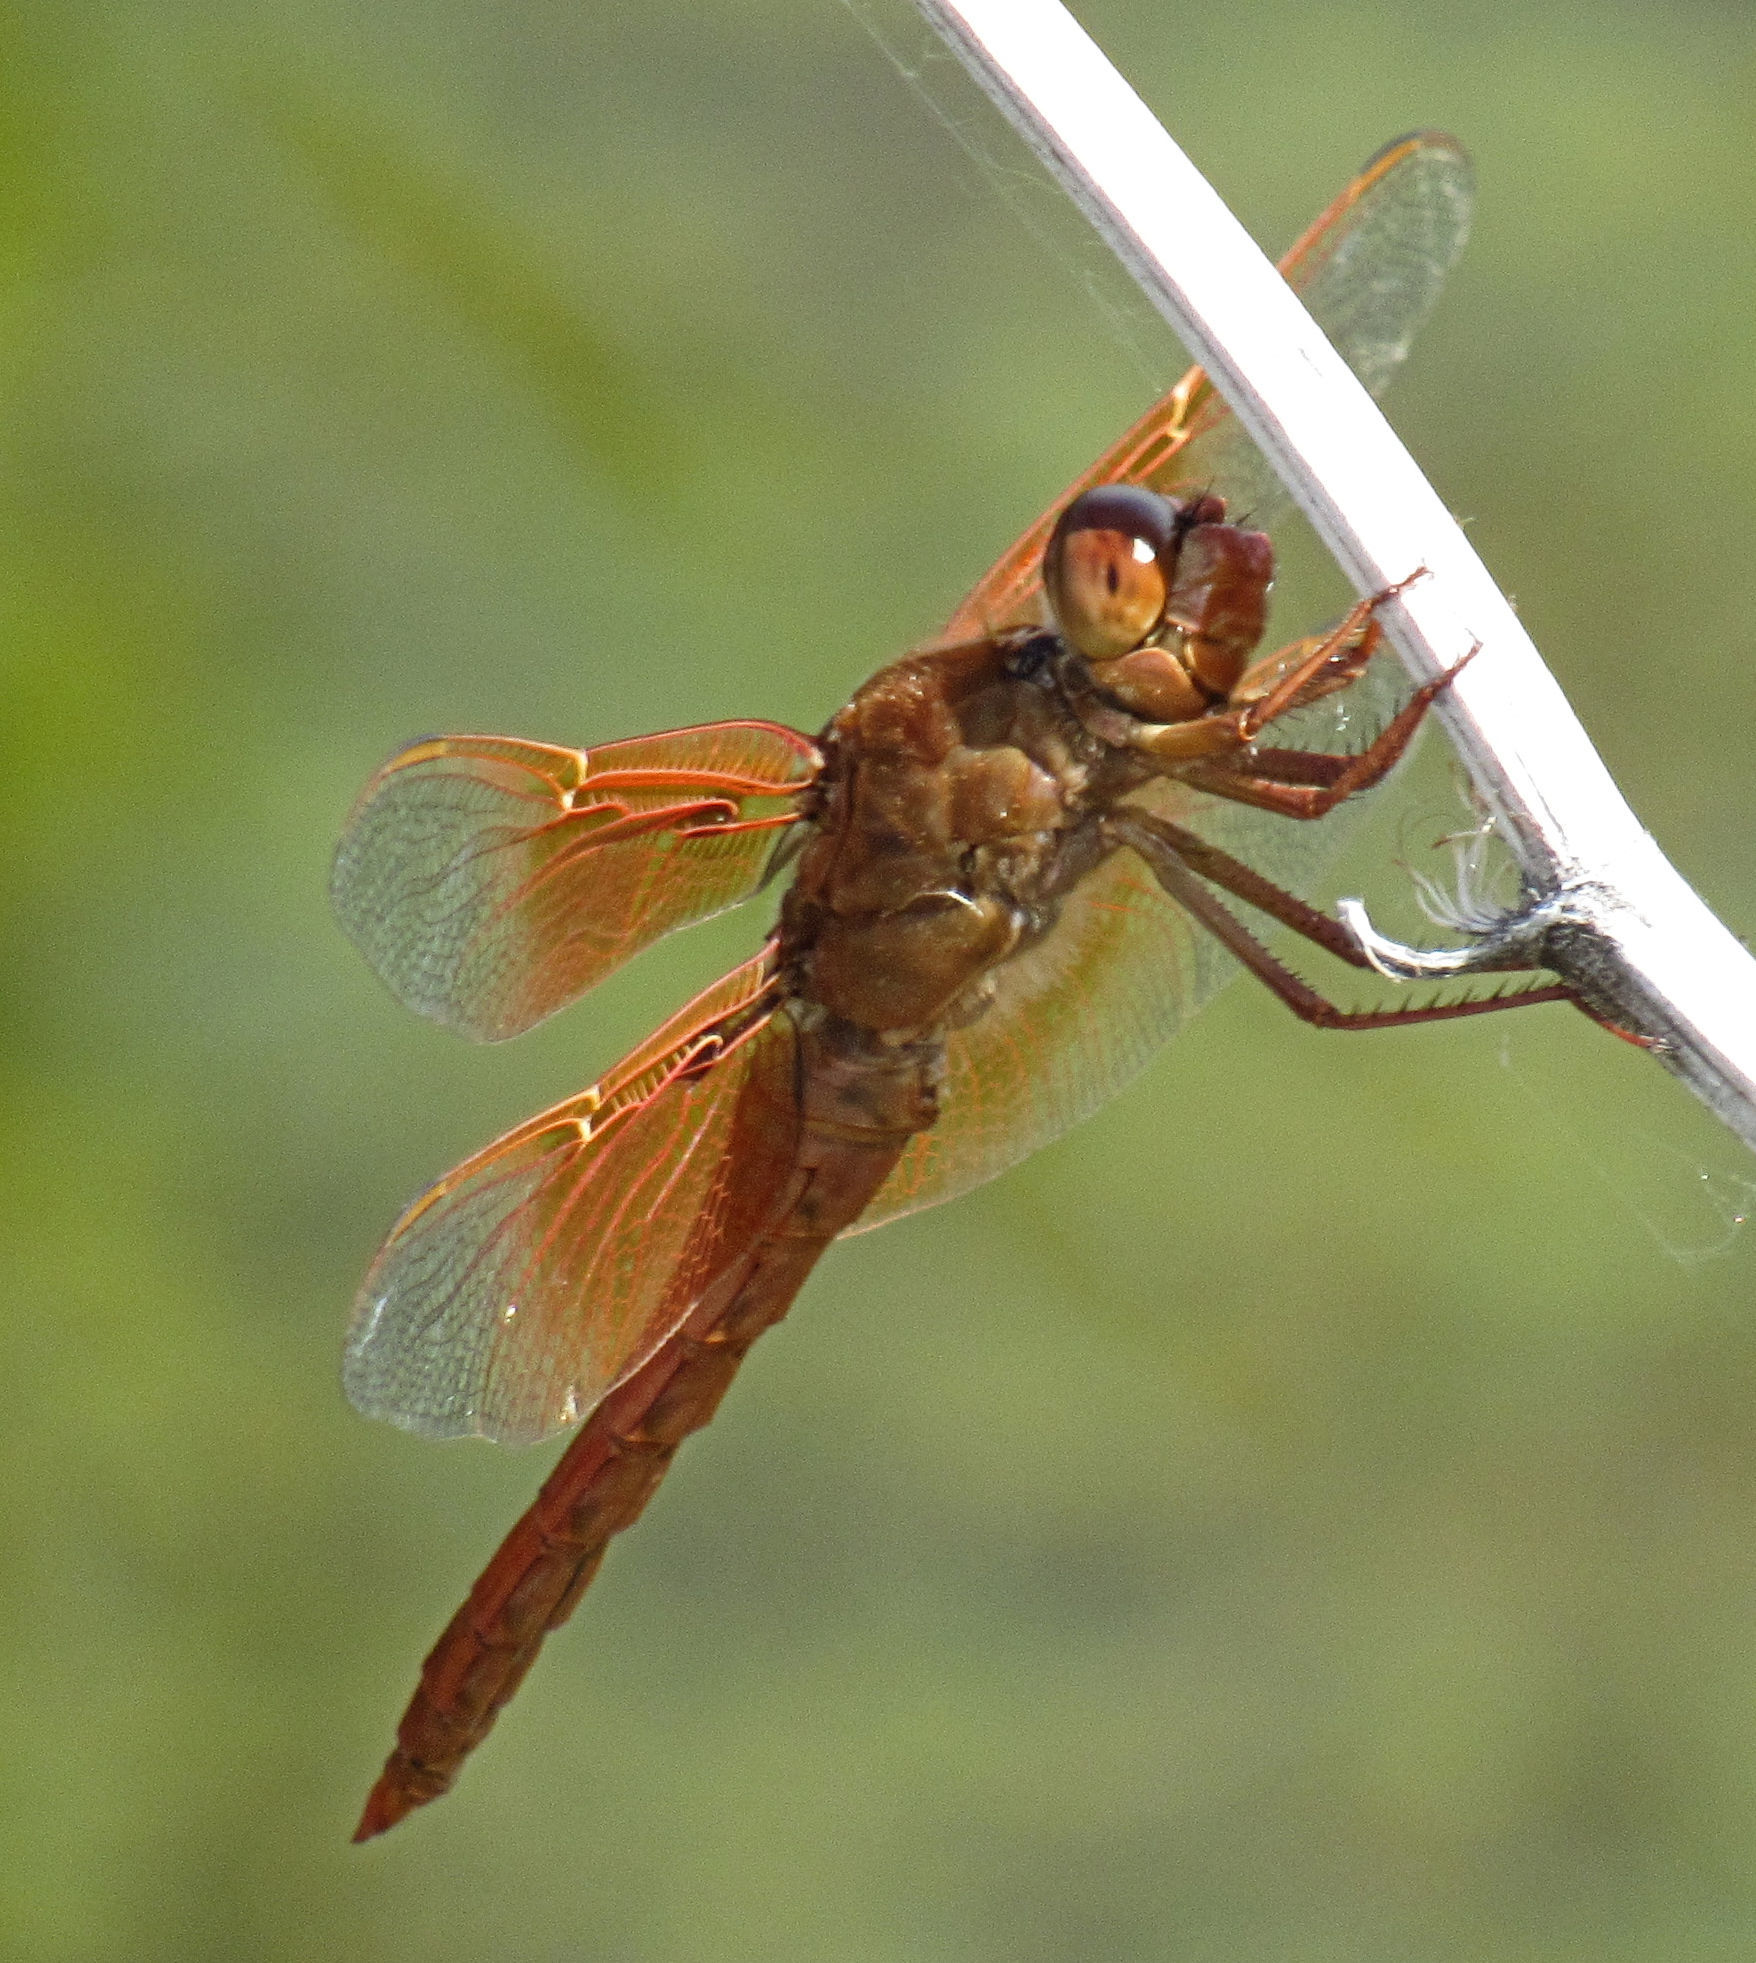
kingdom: Animalia
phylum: Arthropoda
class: Insecta
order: Odonata
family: Libellulidae
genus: Libellula
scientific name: Libellula saturata
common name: Flame skimmer
